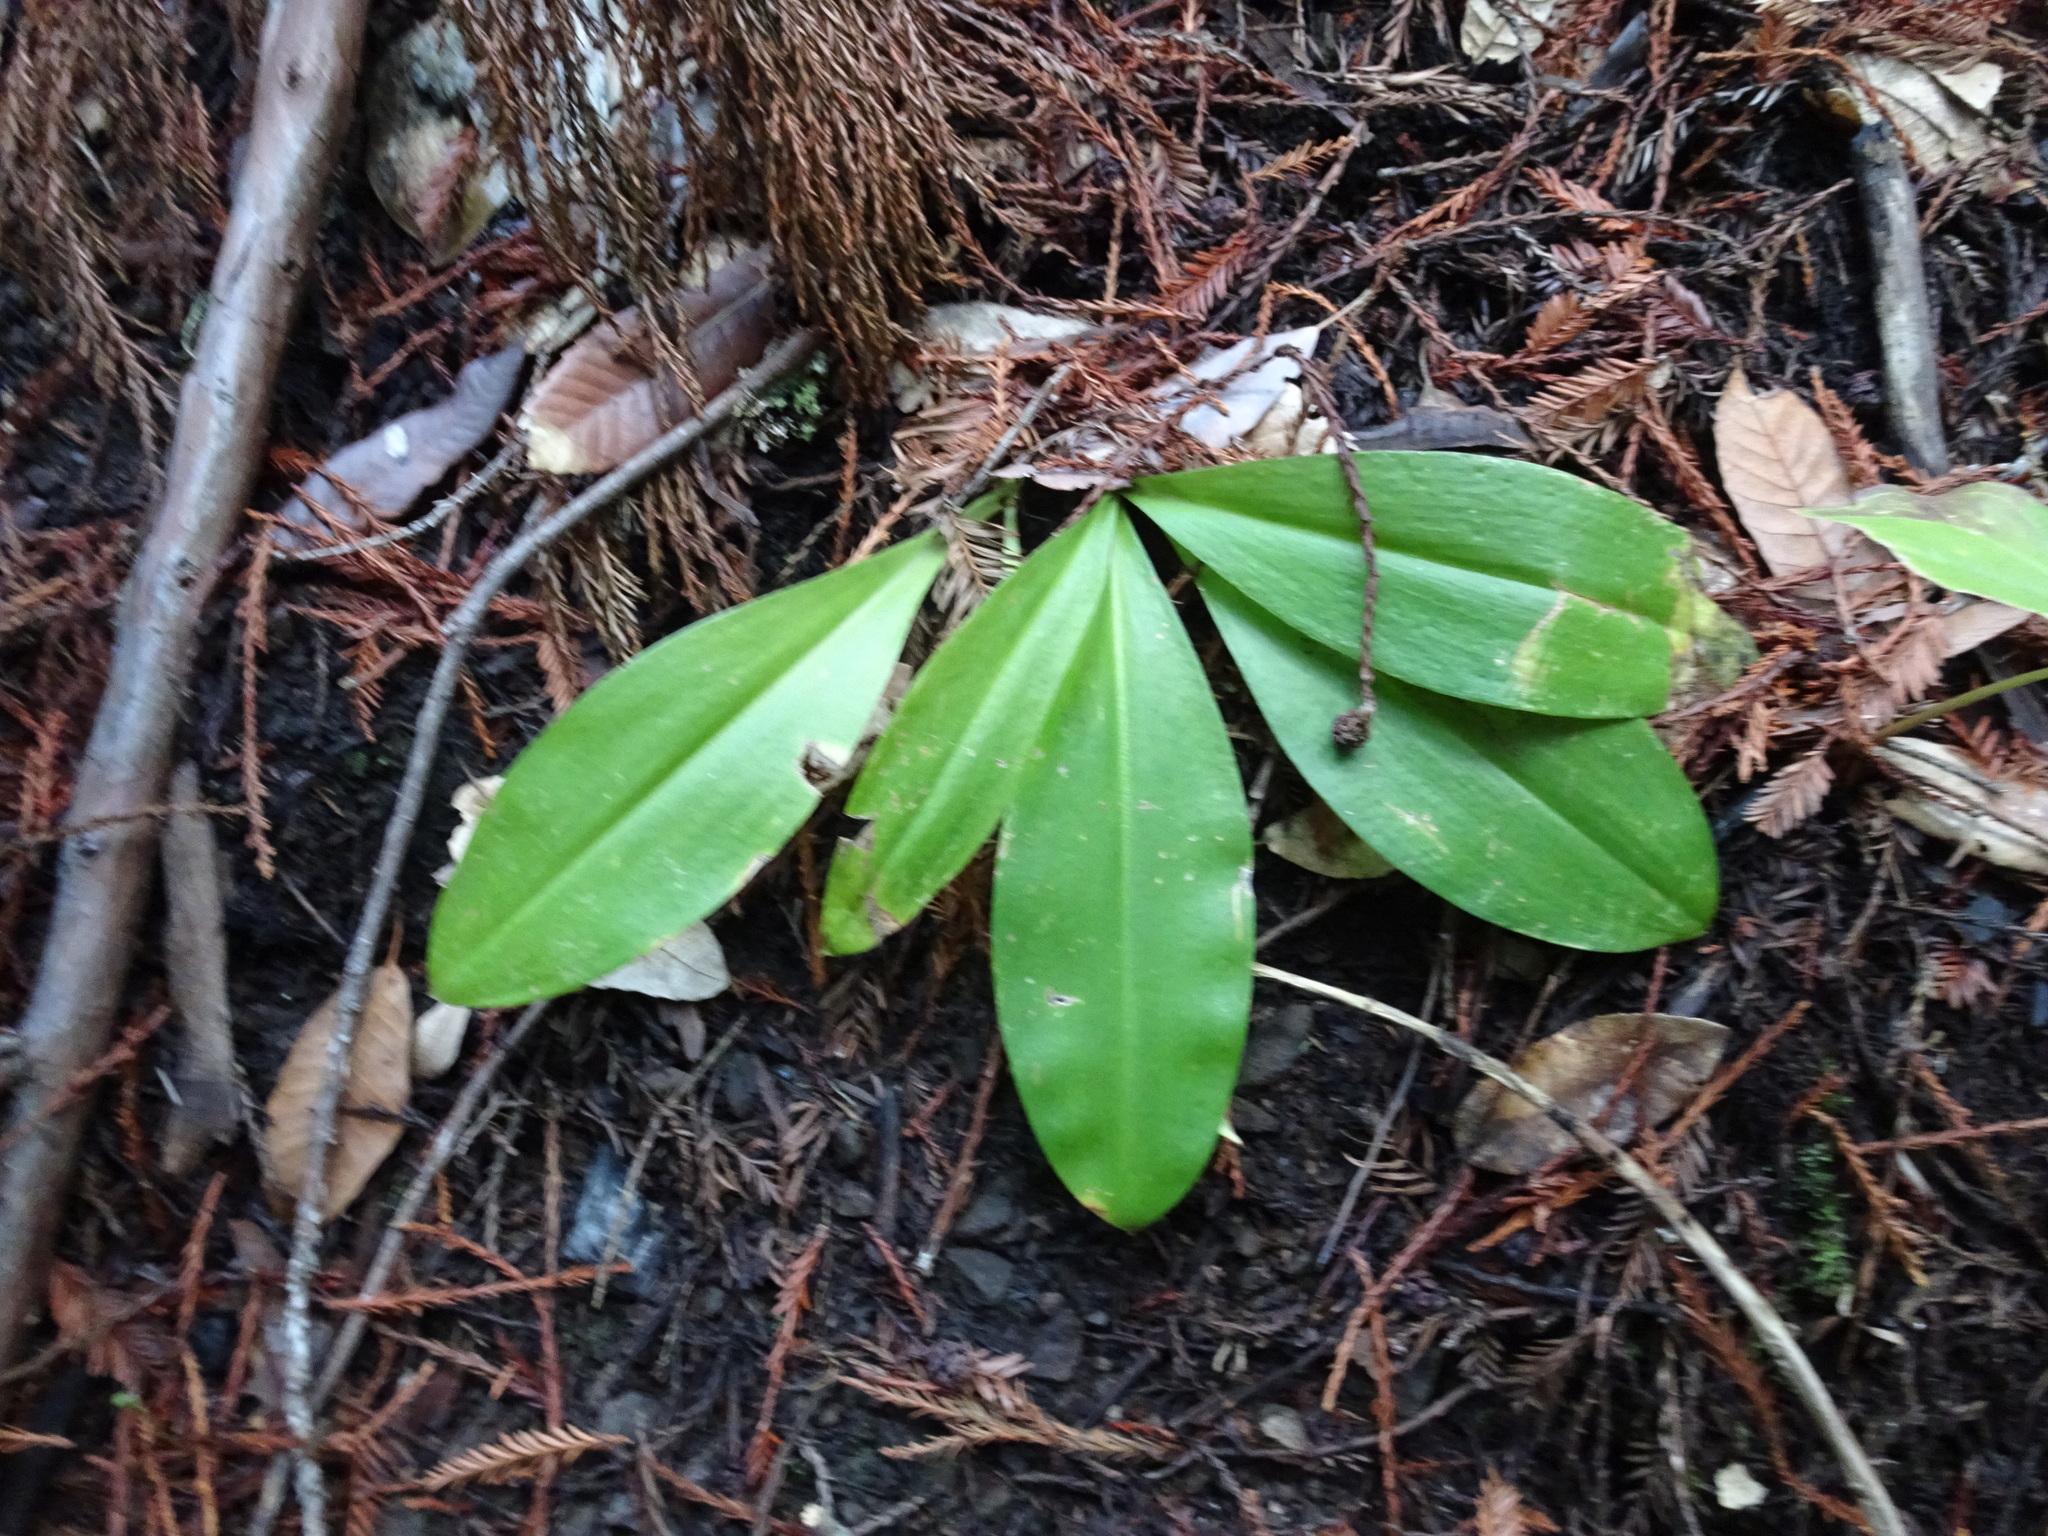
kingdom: Plantae
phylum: Tracheophyta
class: Liliopsida
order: Liliales
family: Liliaceae
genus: Clintonia
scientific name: Clintonia andrewsiana
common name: Red clintonia
